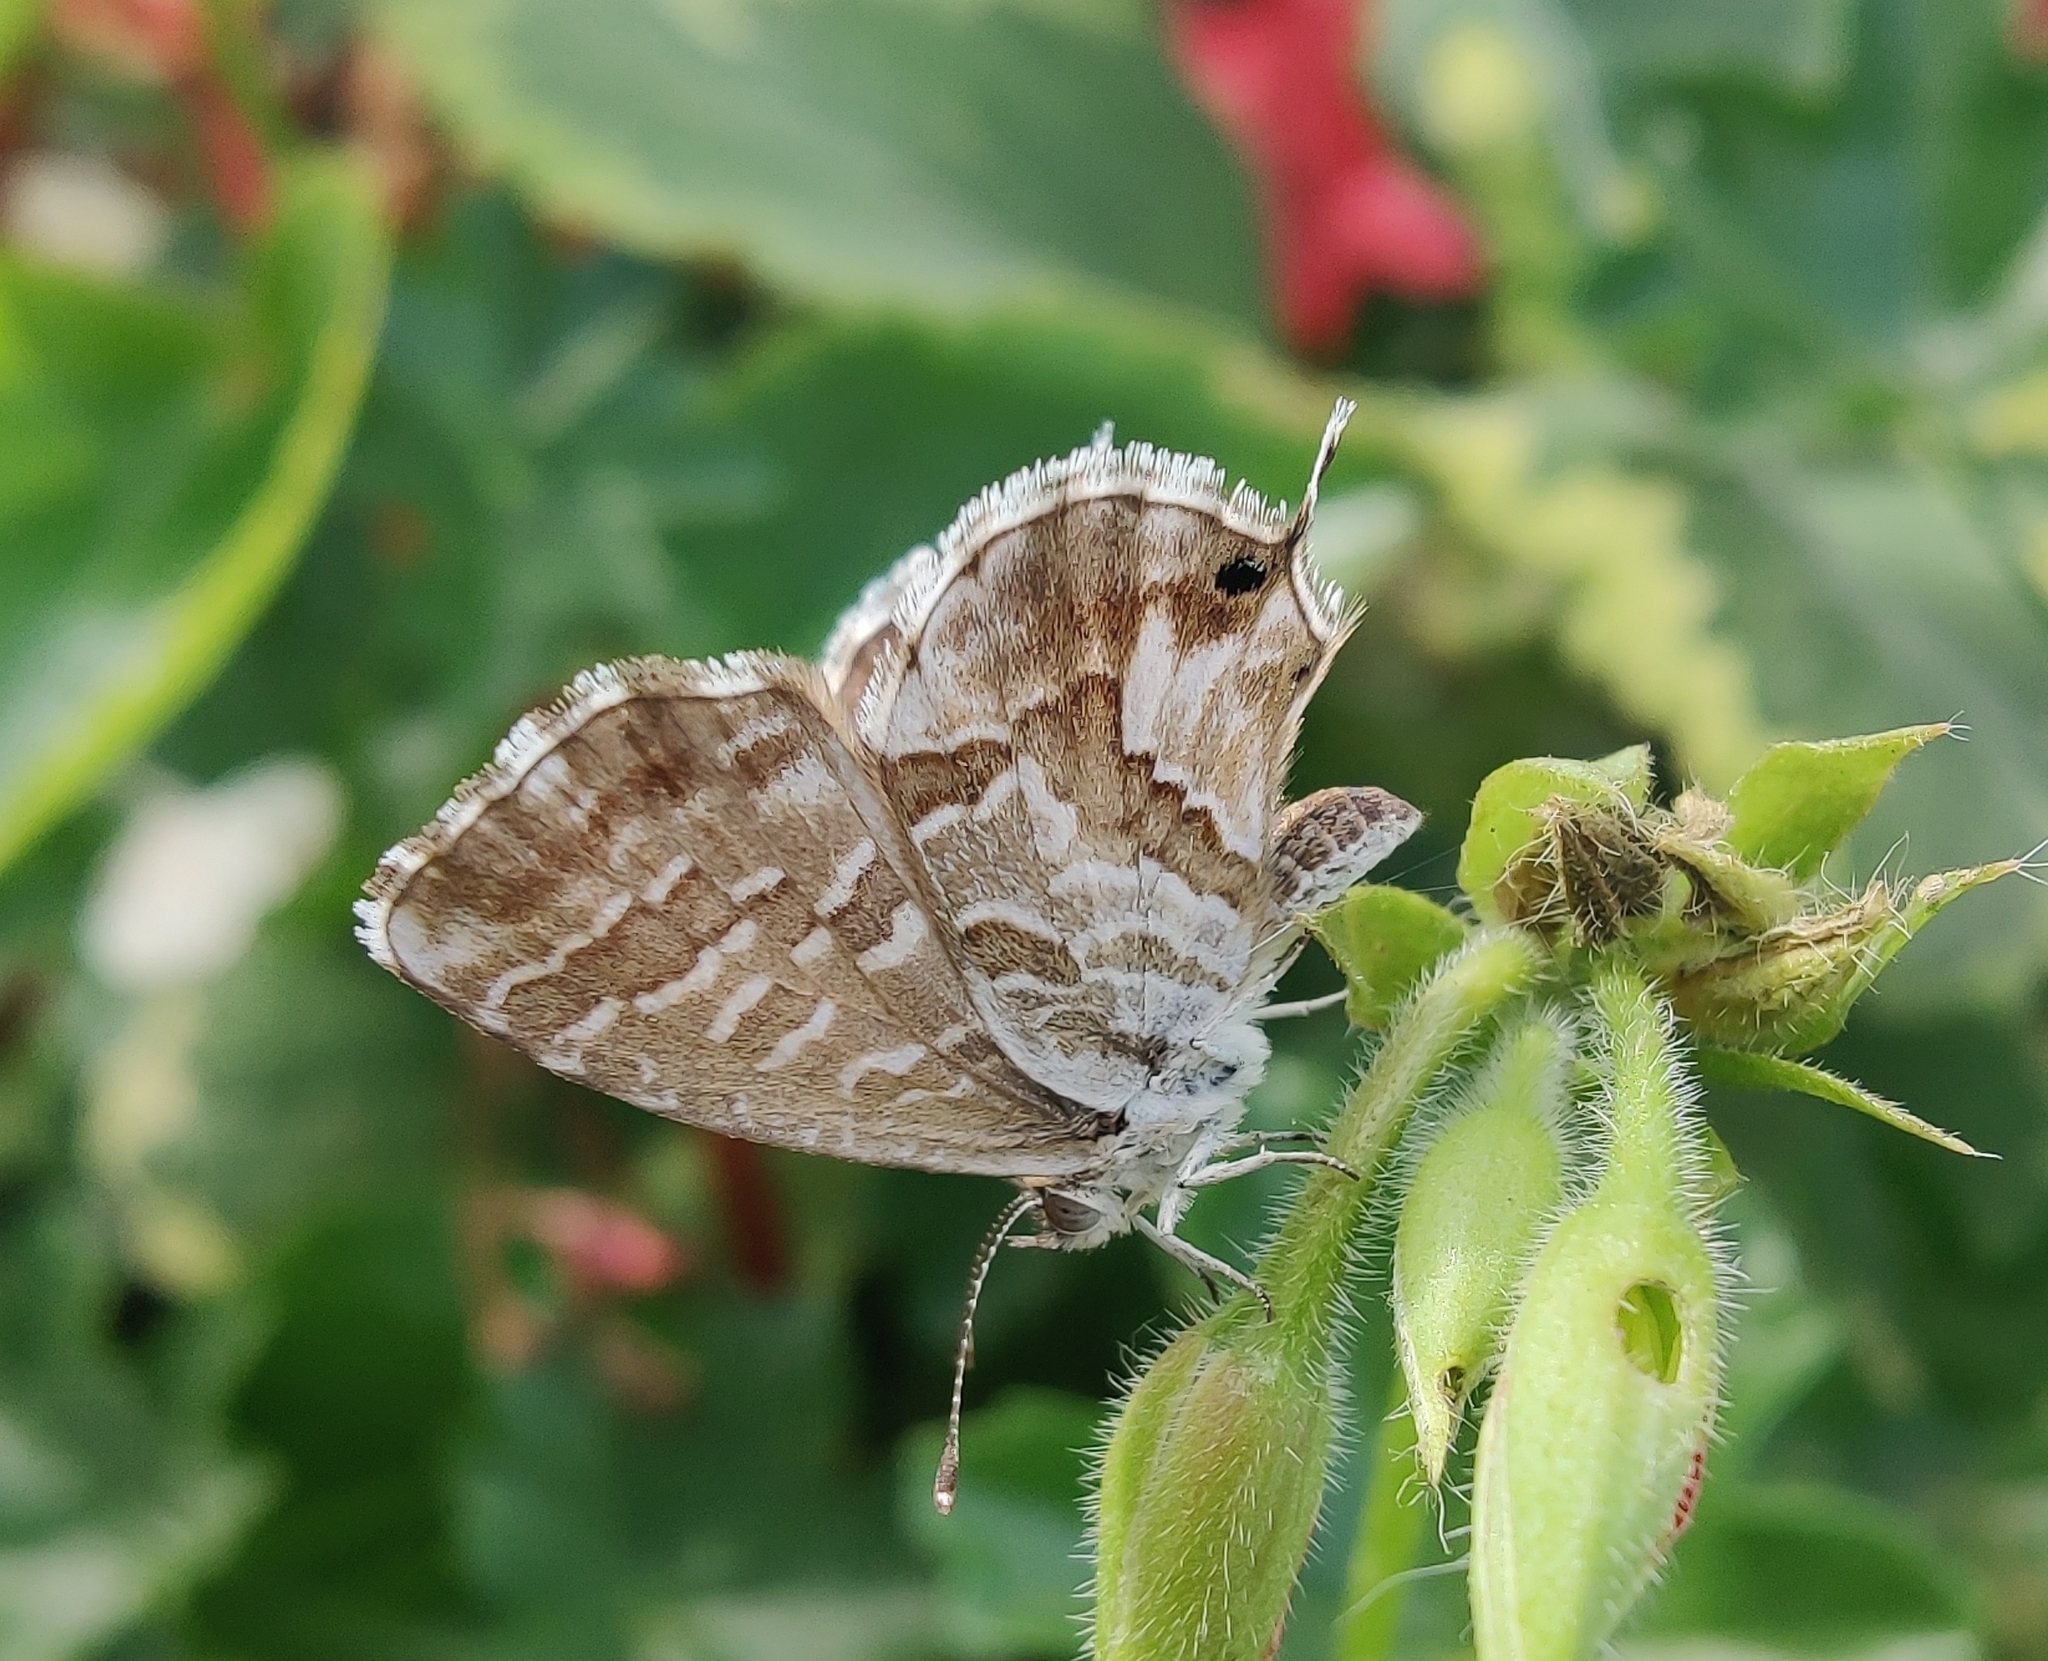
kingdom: Animalia
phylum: Arthropoda
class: Insecta
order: Lepidoptera
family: Lycaenidae
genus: Cacyreus
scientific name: Cacyreus marshalli
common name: Geranium bronze
